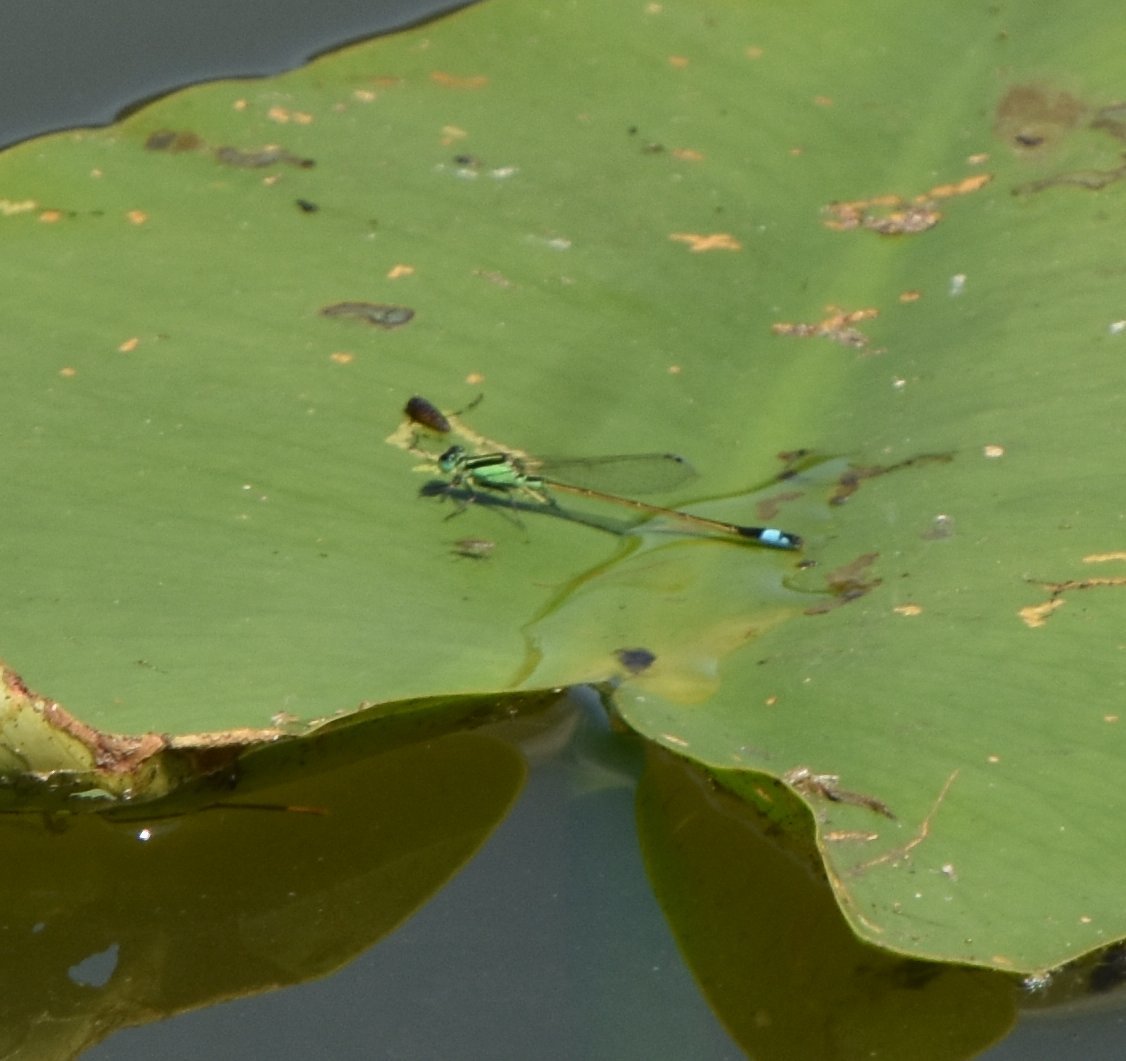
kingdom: Animalia
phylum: Arthropoda
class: Insecta
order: Odonata
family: Coenagrionidae
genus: Ischnura
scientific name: Ischnura ramburii
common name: Rambur's forktail
